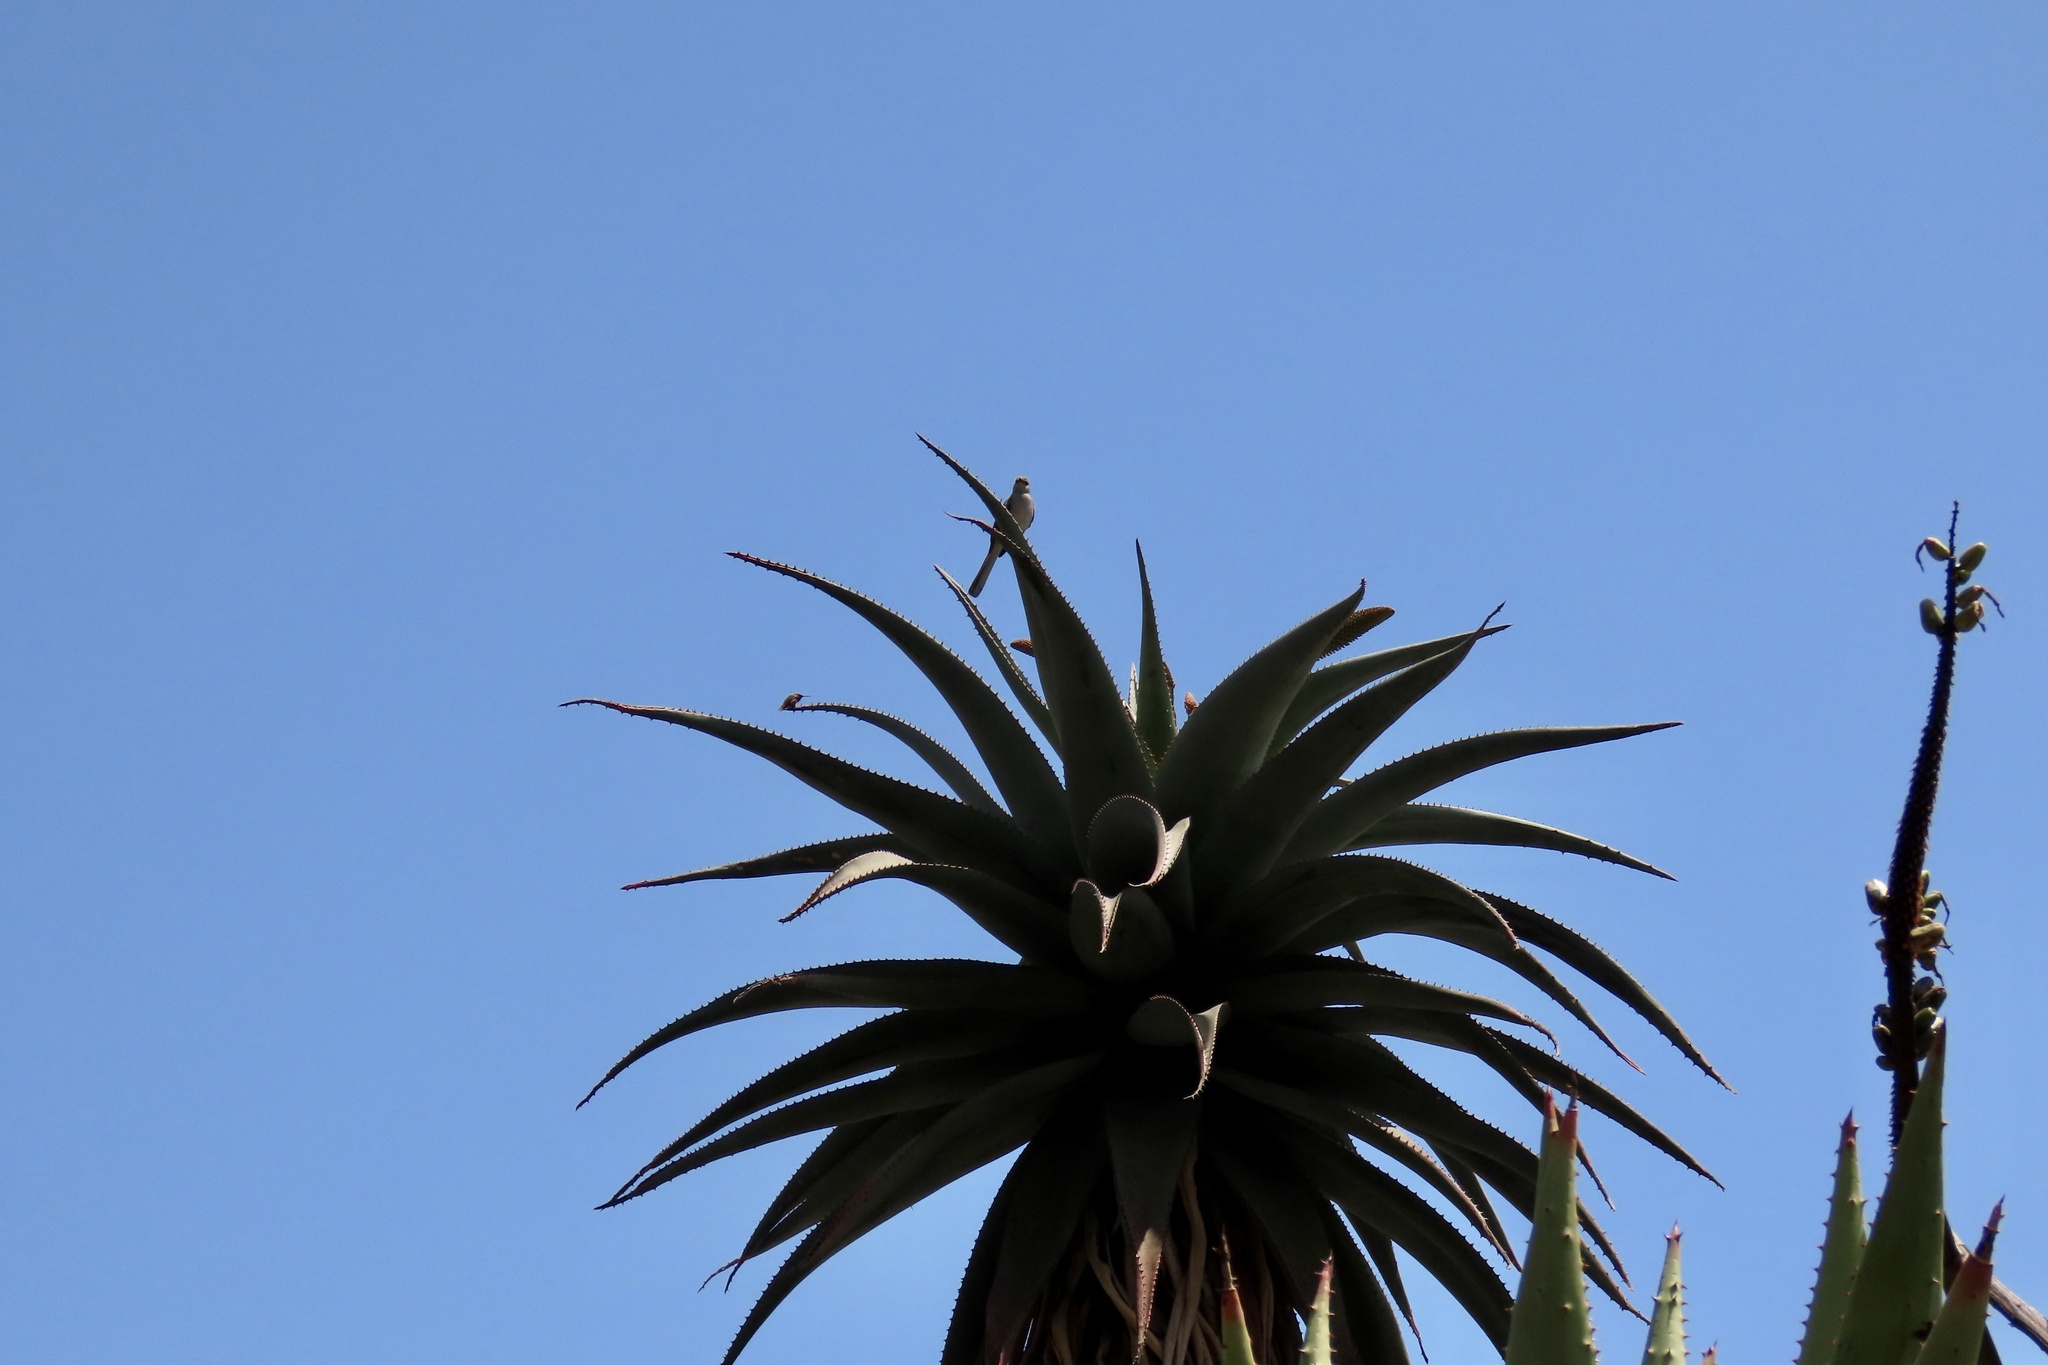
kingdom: Animalia
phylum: Chordata
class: Aves
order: Passeriformes
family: Mimidae
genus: Mimus
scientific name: Mimus polyglottos
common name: Northern mockingbird
